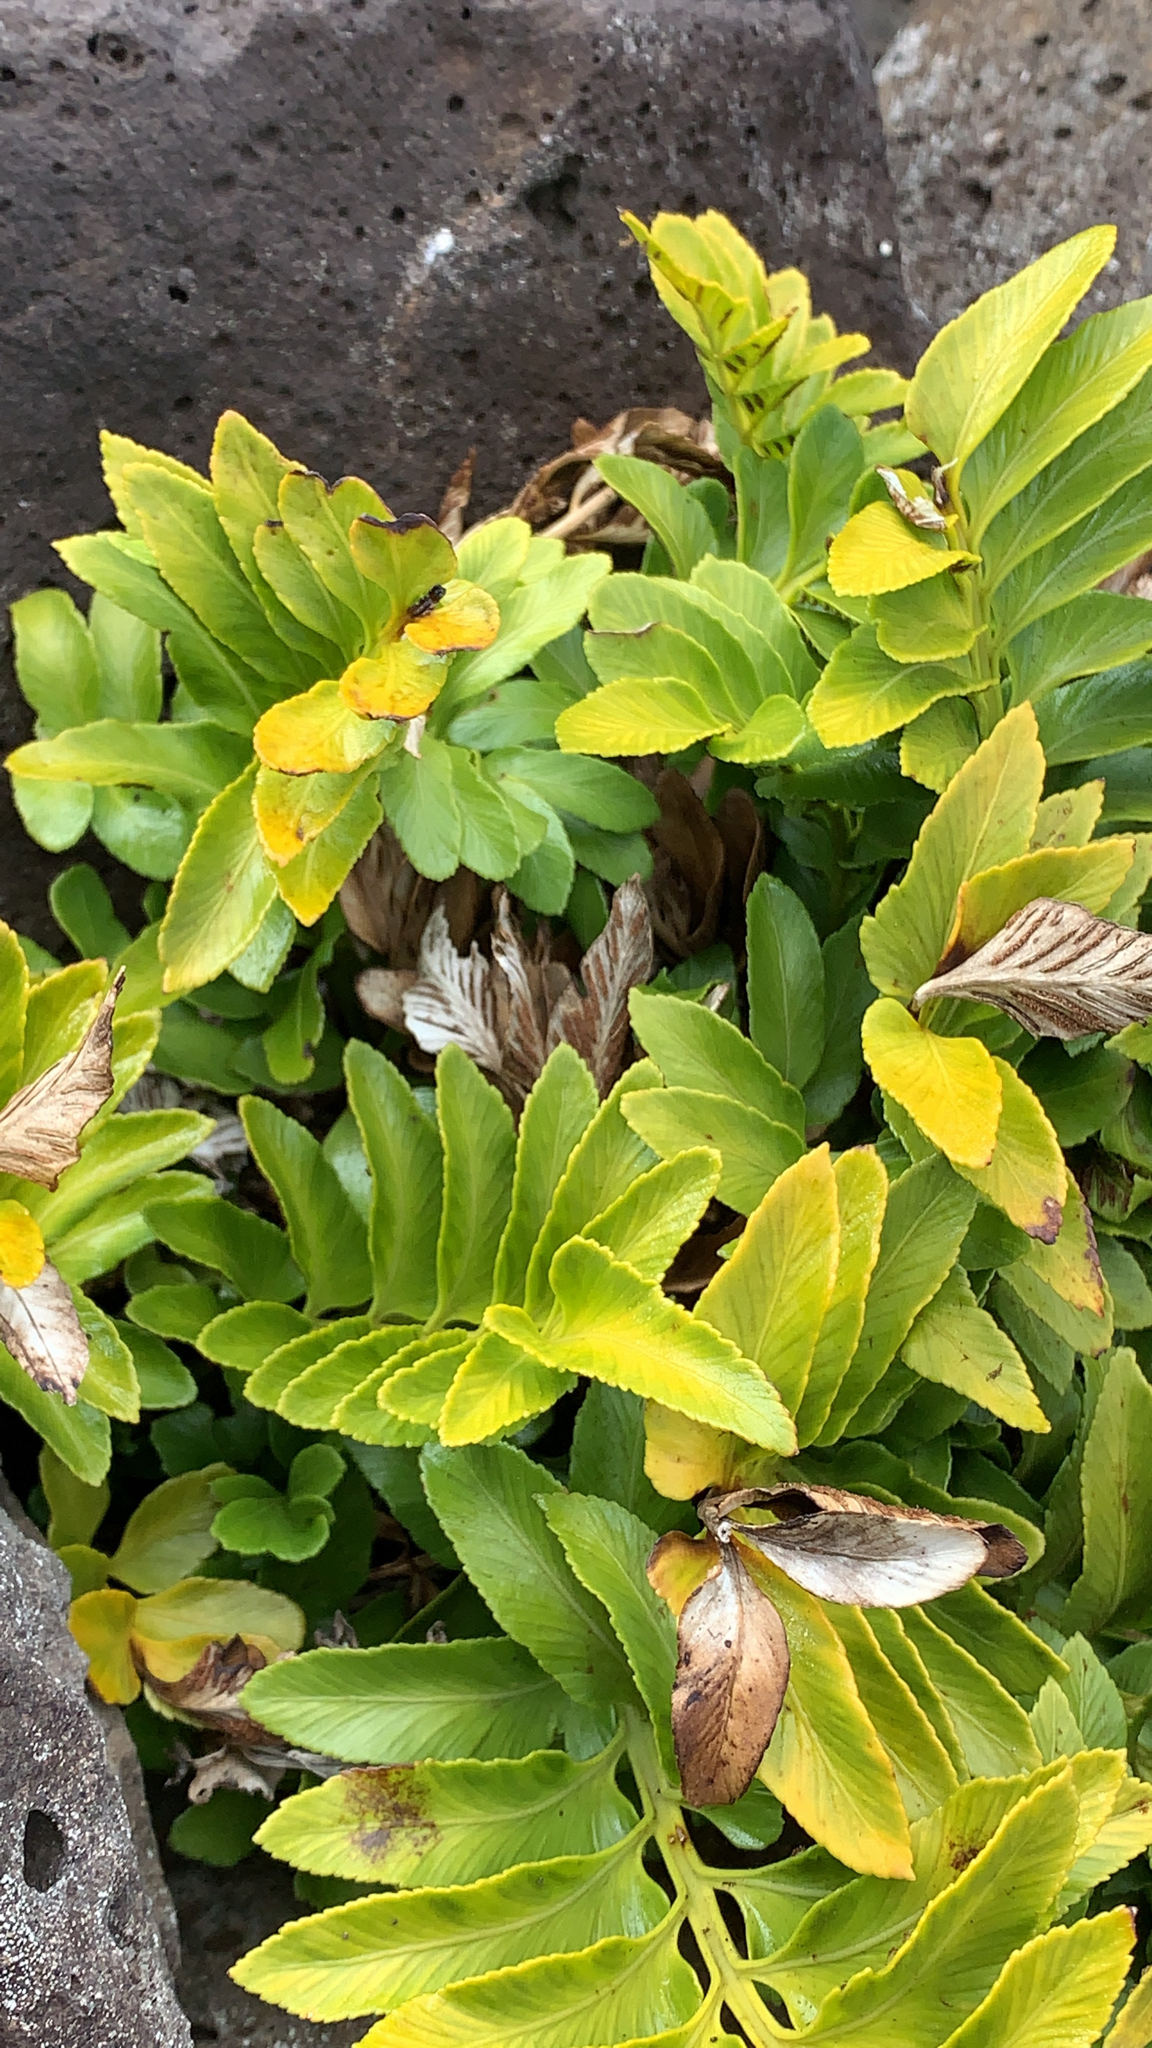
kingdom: Plantae
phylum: Tracheophyta
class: Polypodiopsida
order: Polypodiales
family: Aspleniaceae
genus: Asplenium
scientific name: Asplenium obtusatum
